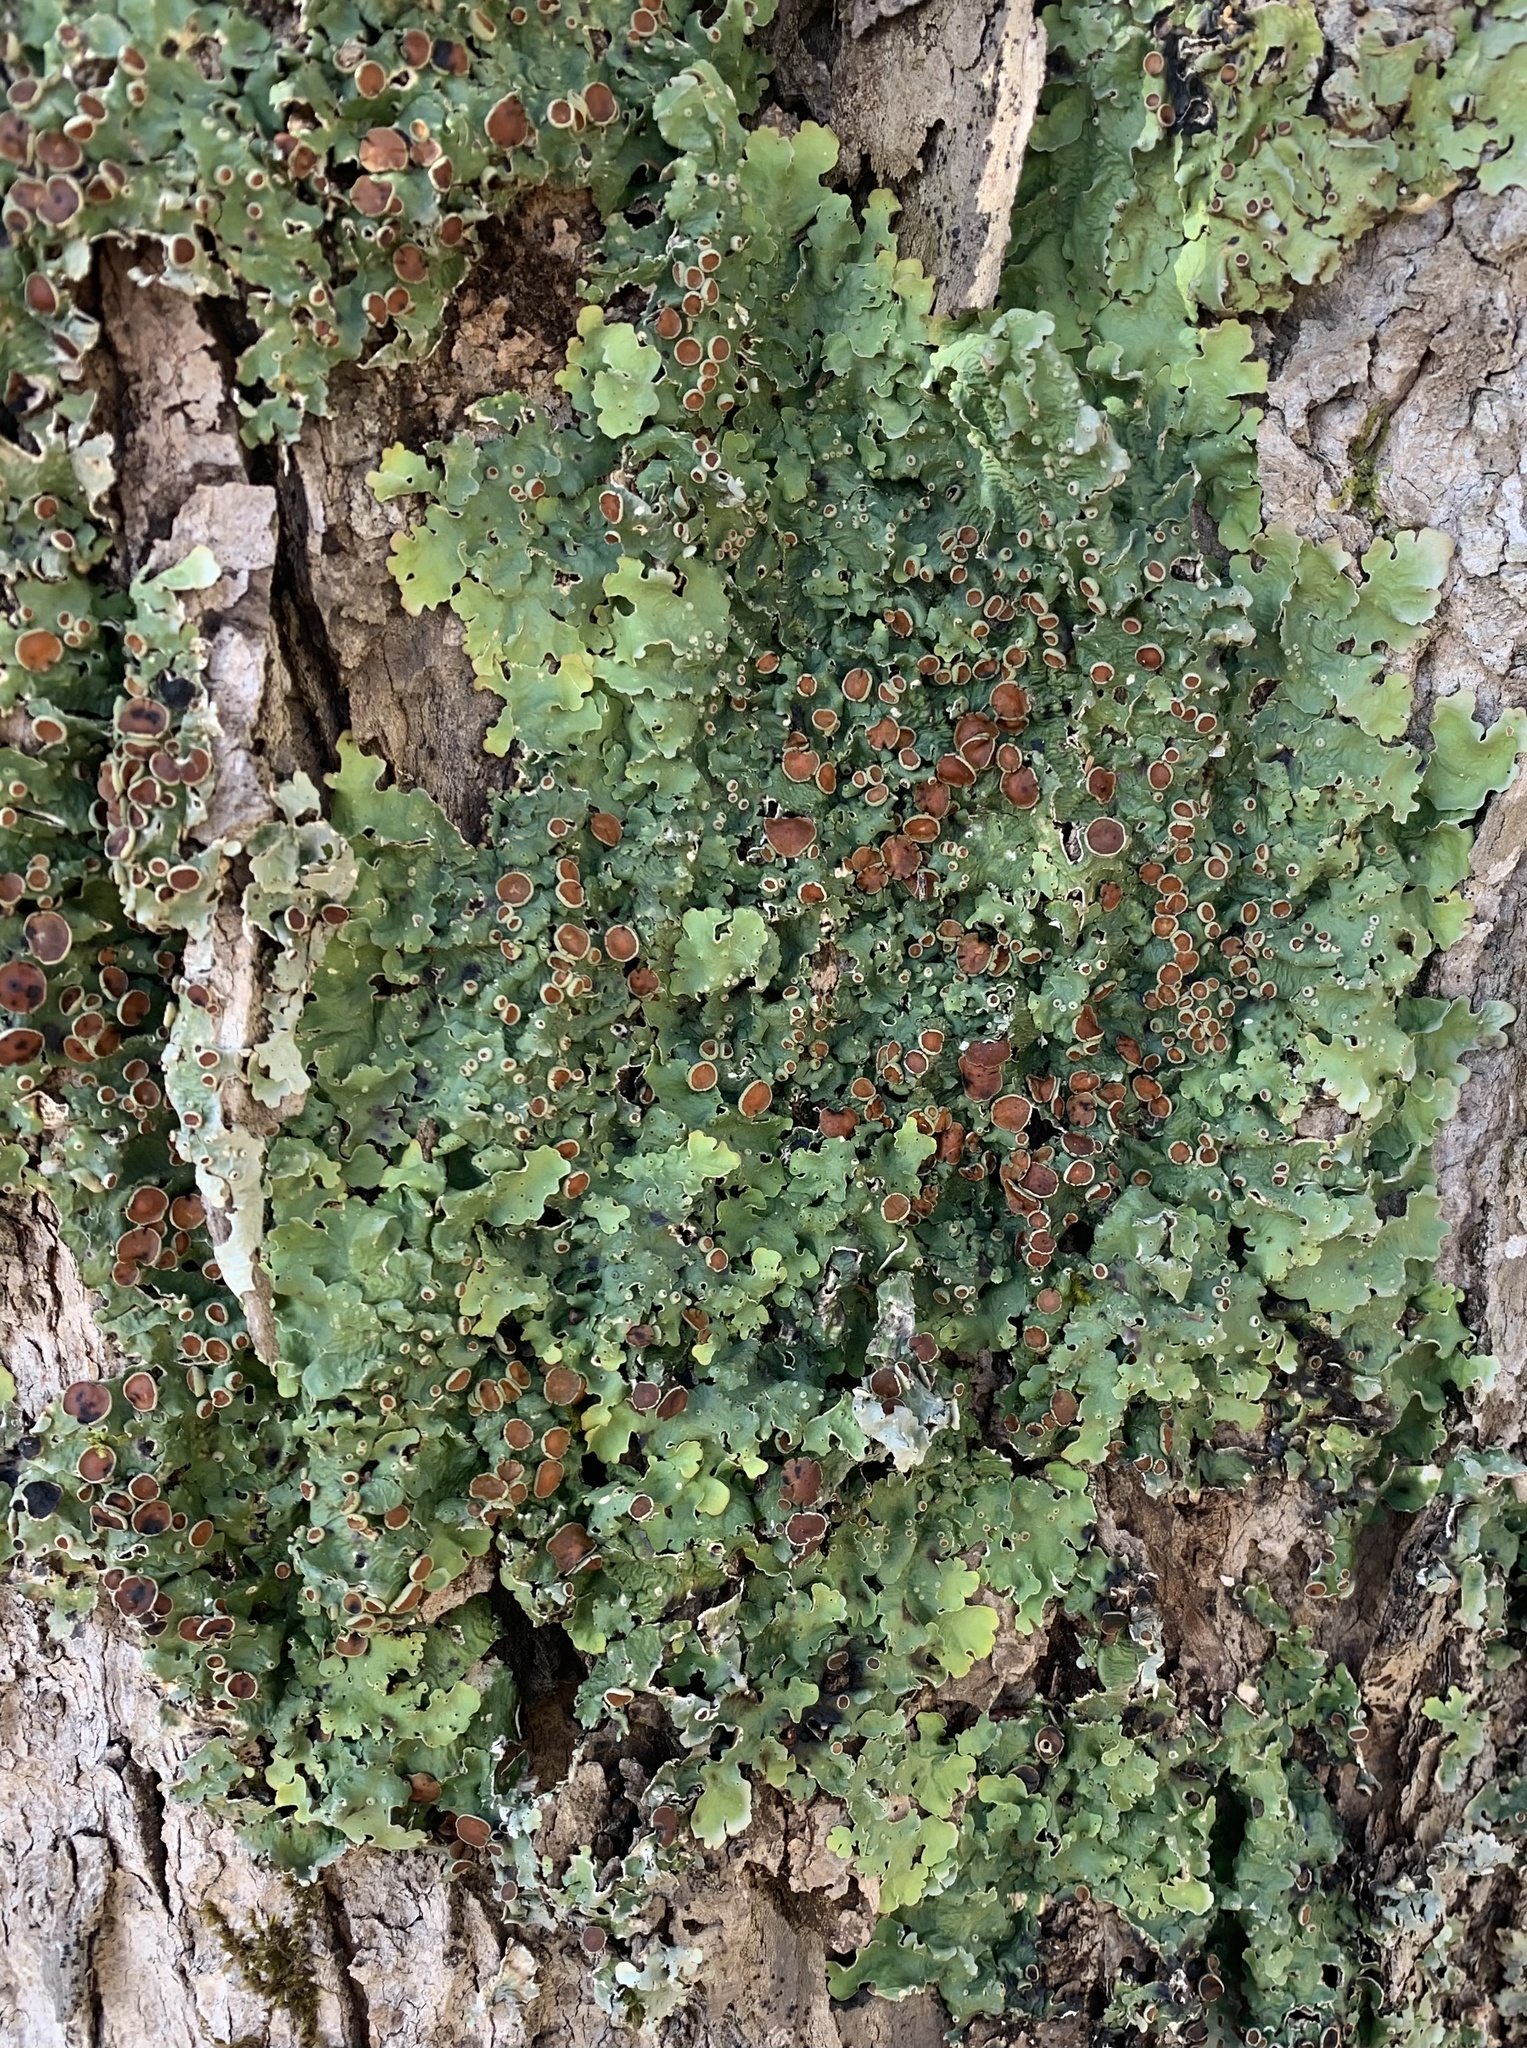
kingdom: Fungi
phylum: Ascomycota
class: Lecanoromycetes
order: Peltigerales
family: Lobariaceae
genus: Ricasolia
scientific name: Ricasolia quercizans
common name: Smooth lungwort
